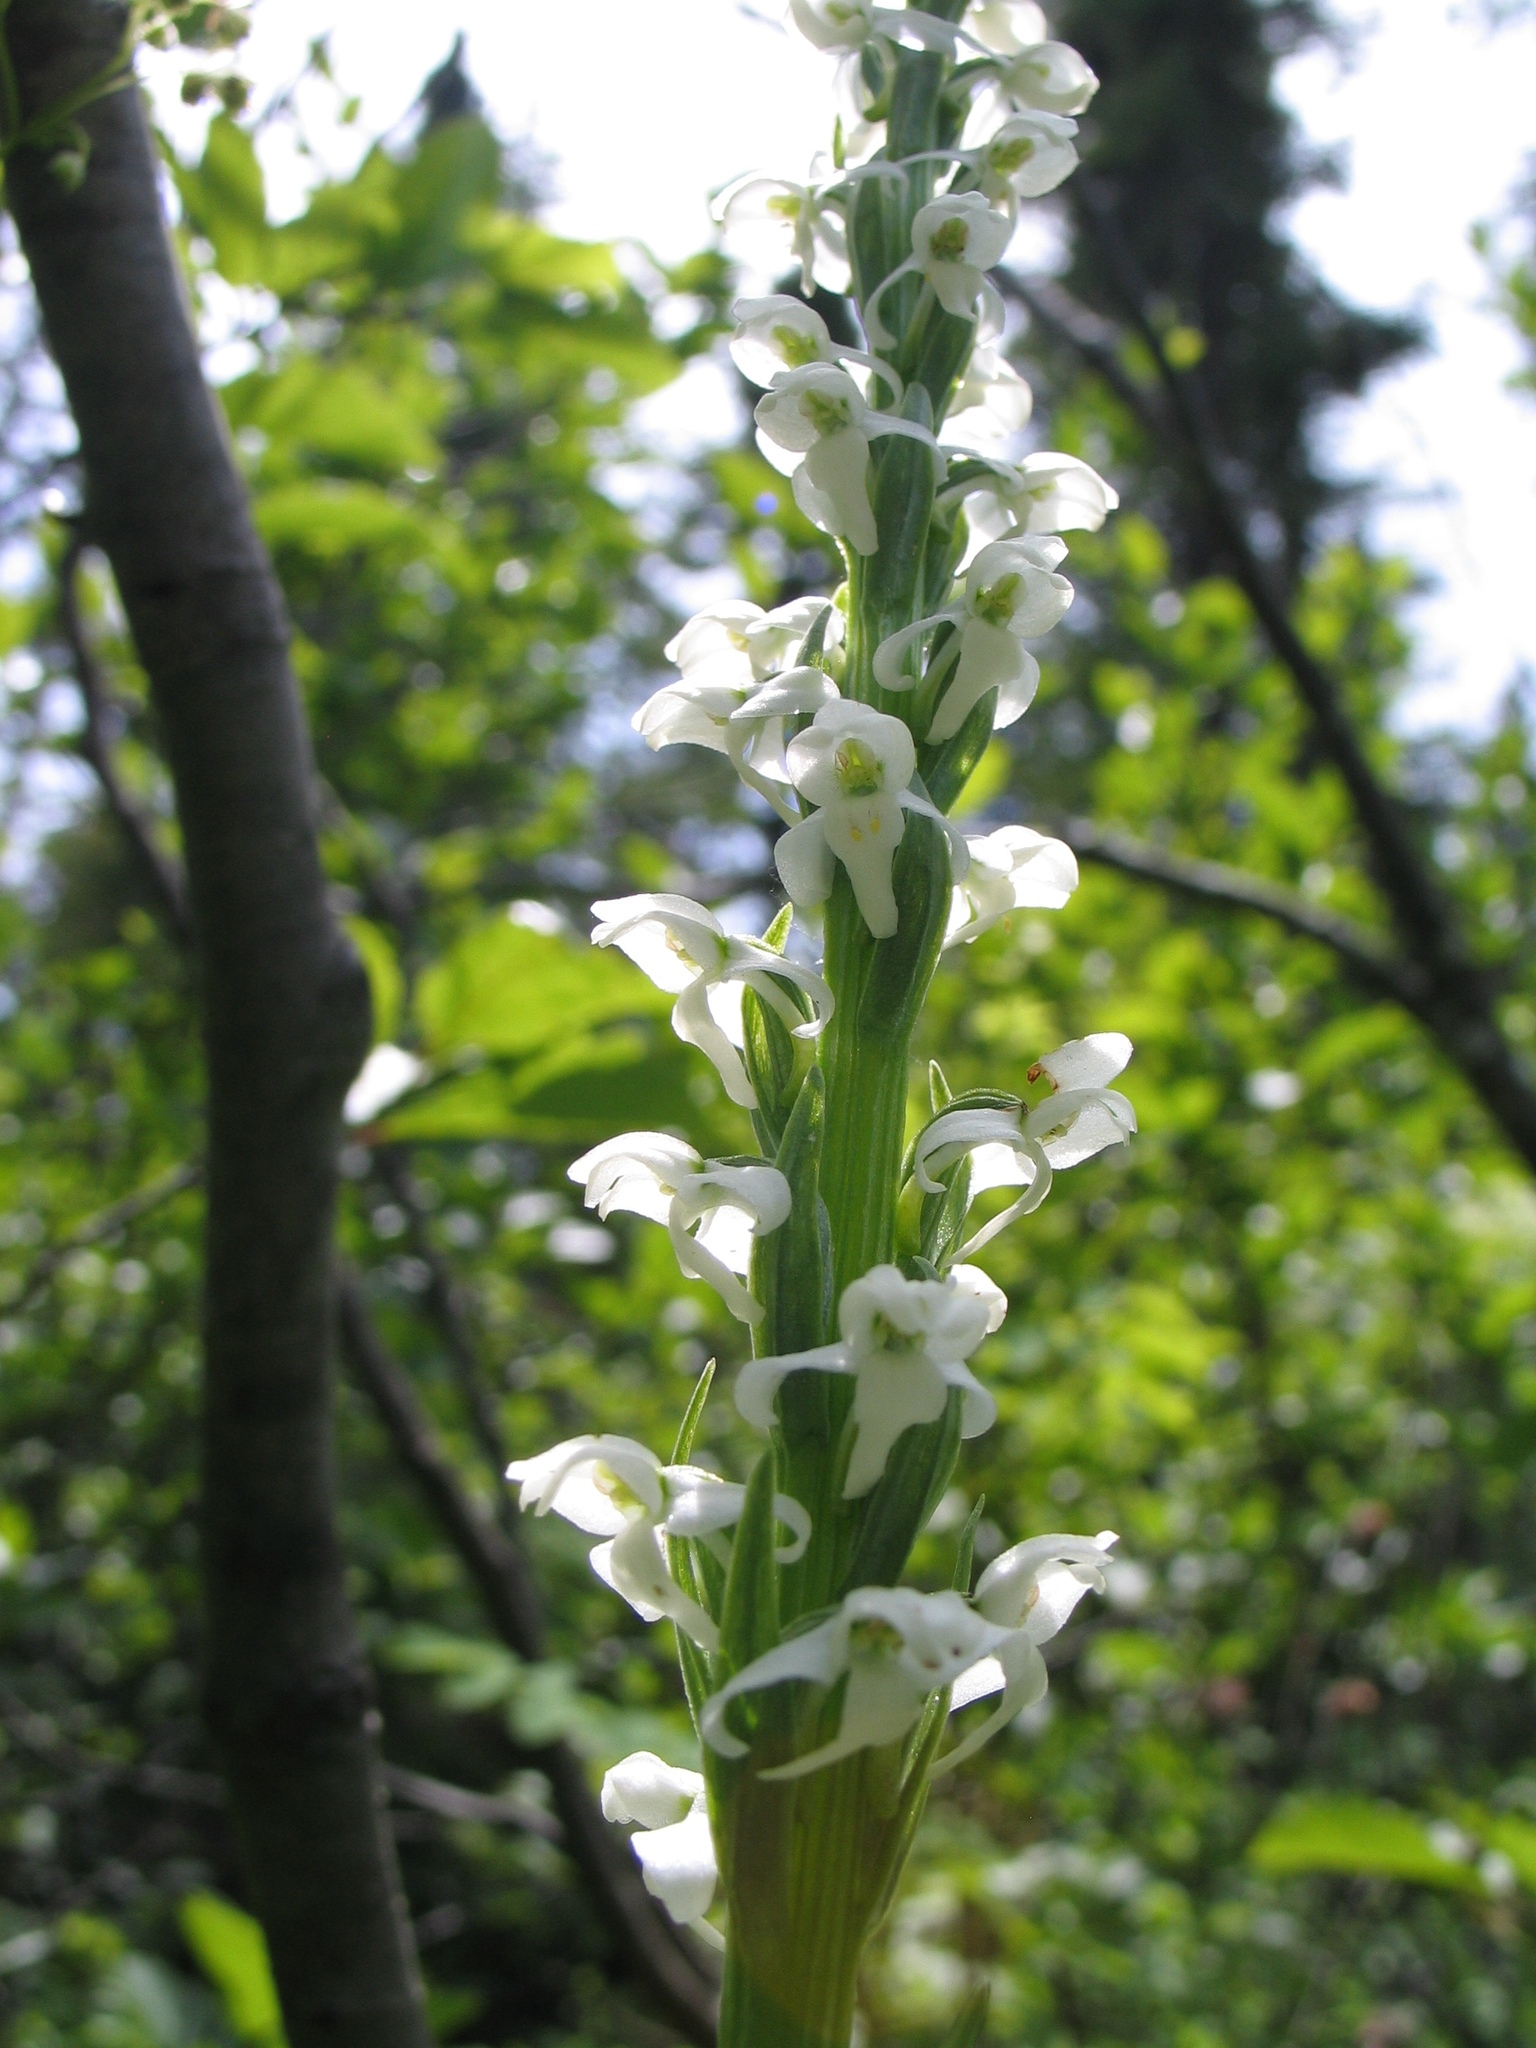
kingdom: Plantae
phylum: Tracheophyta
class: Liliopsida
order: Asparagales
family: Orchidaceae
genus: Platanthera
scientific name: Platanthera dilatata
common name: Bog candles
